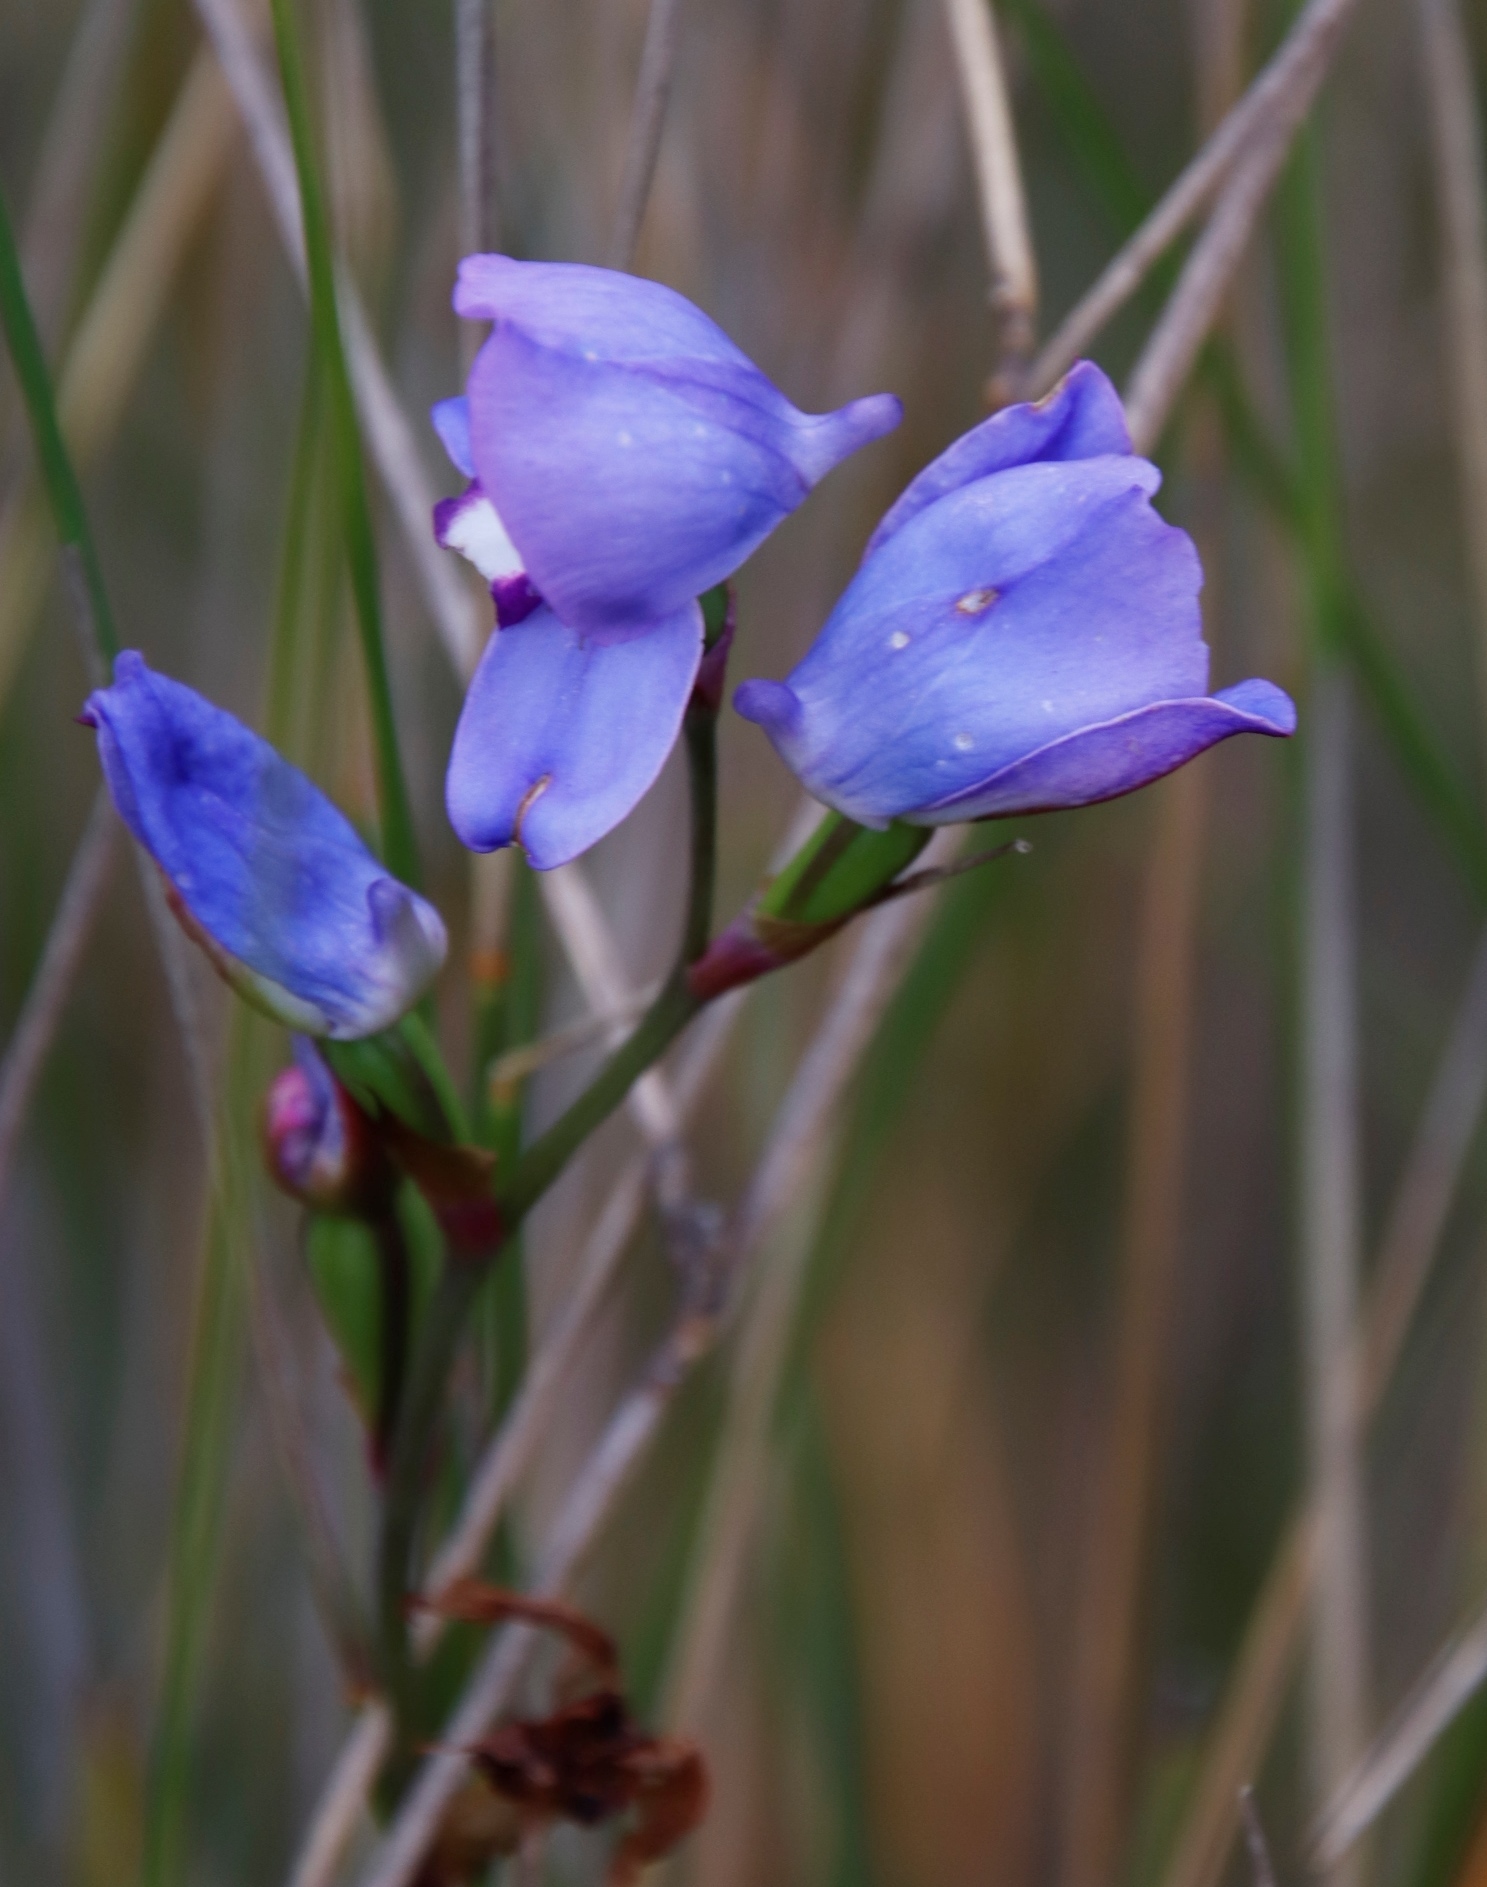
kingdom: Plantae
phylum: Tracheophyta
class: Liliopsida
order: Asparagales
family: Orchidaceae
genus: Disa
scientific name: Disa graminifolia
